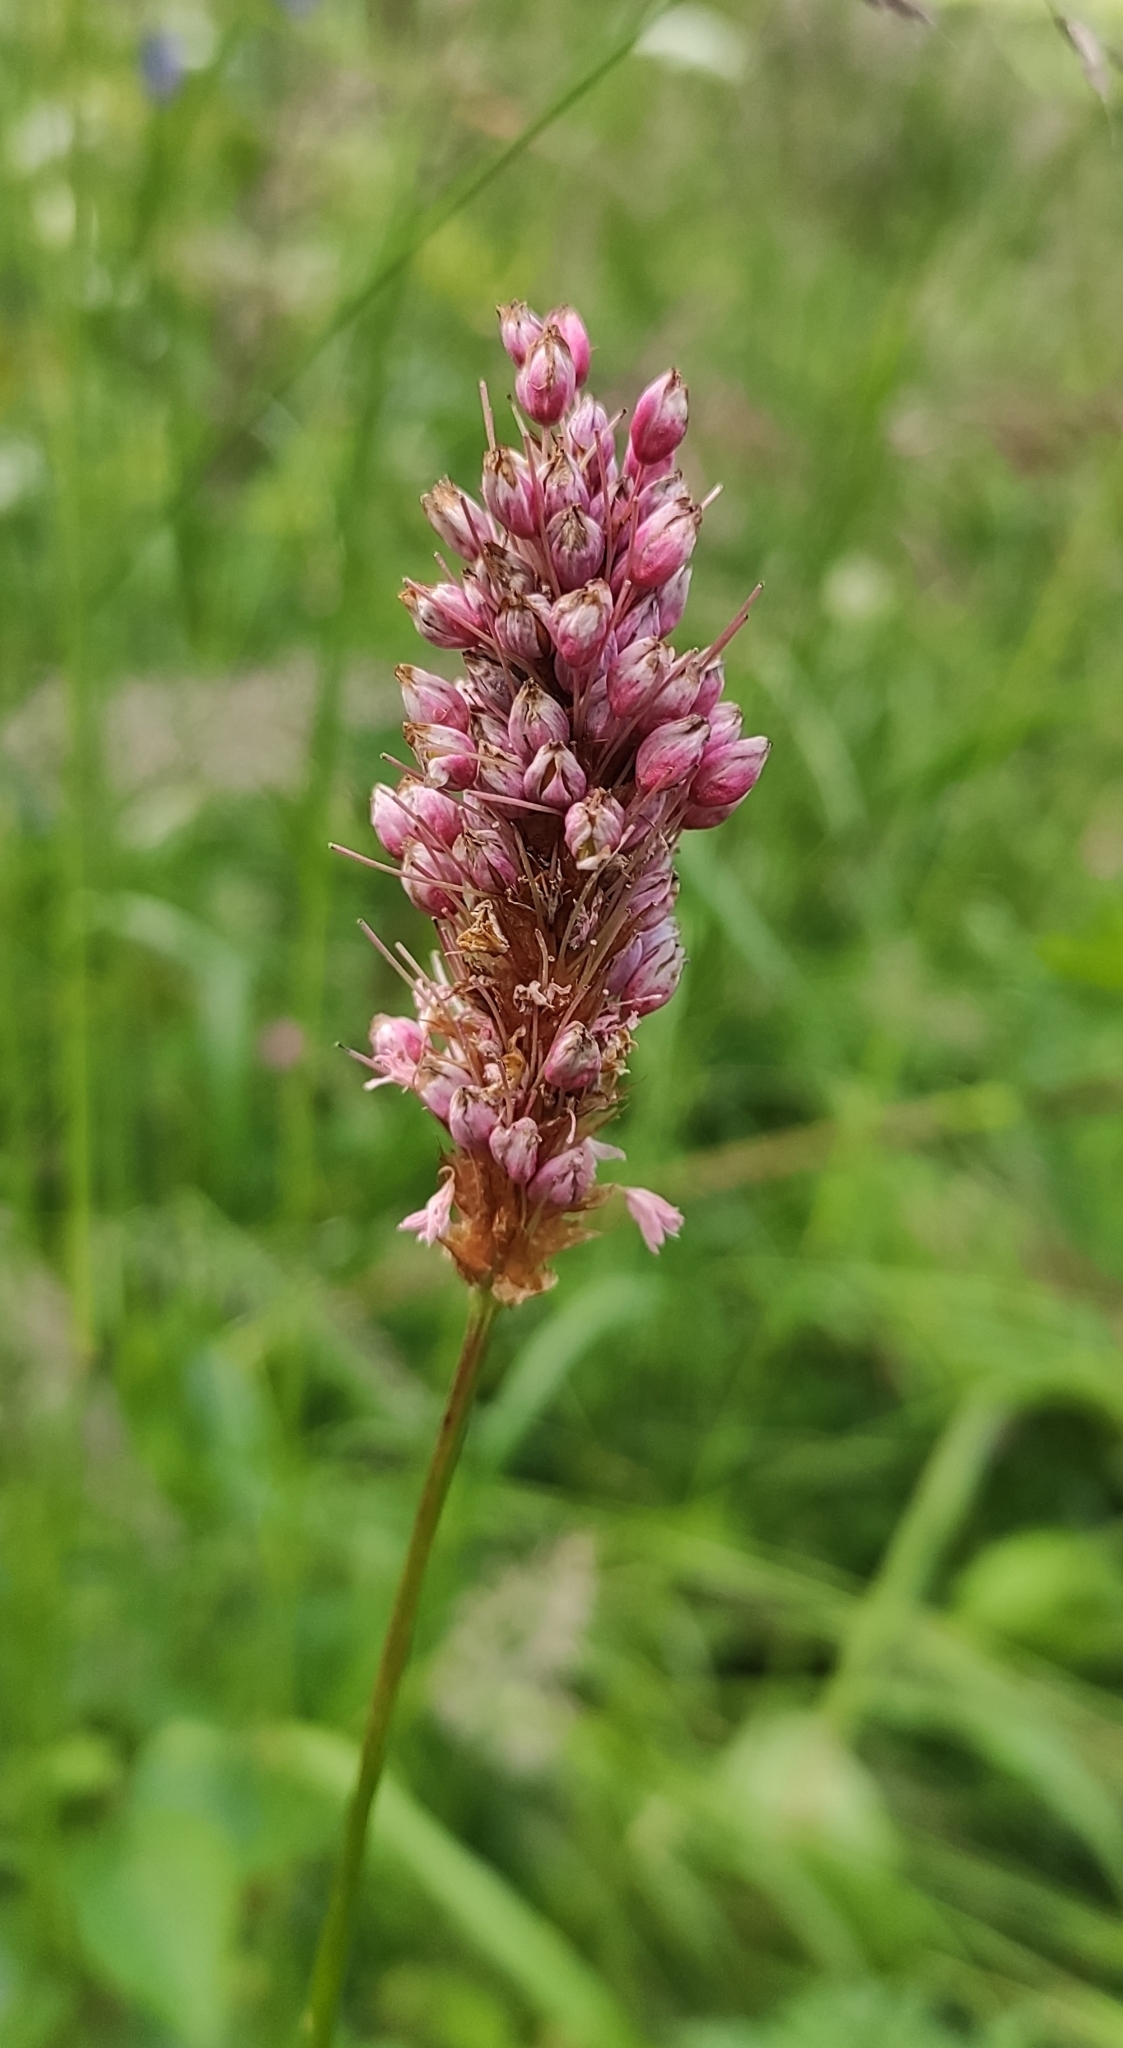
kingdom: Plantae
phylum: Tracheophyta
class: Magnoliopsida
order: Caryophyllales
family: Polygonaceae
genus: Bistorta
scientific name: Bistorta carnea
